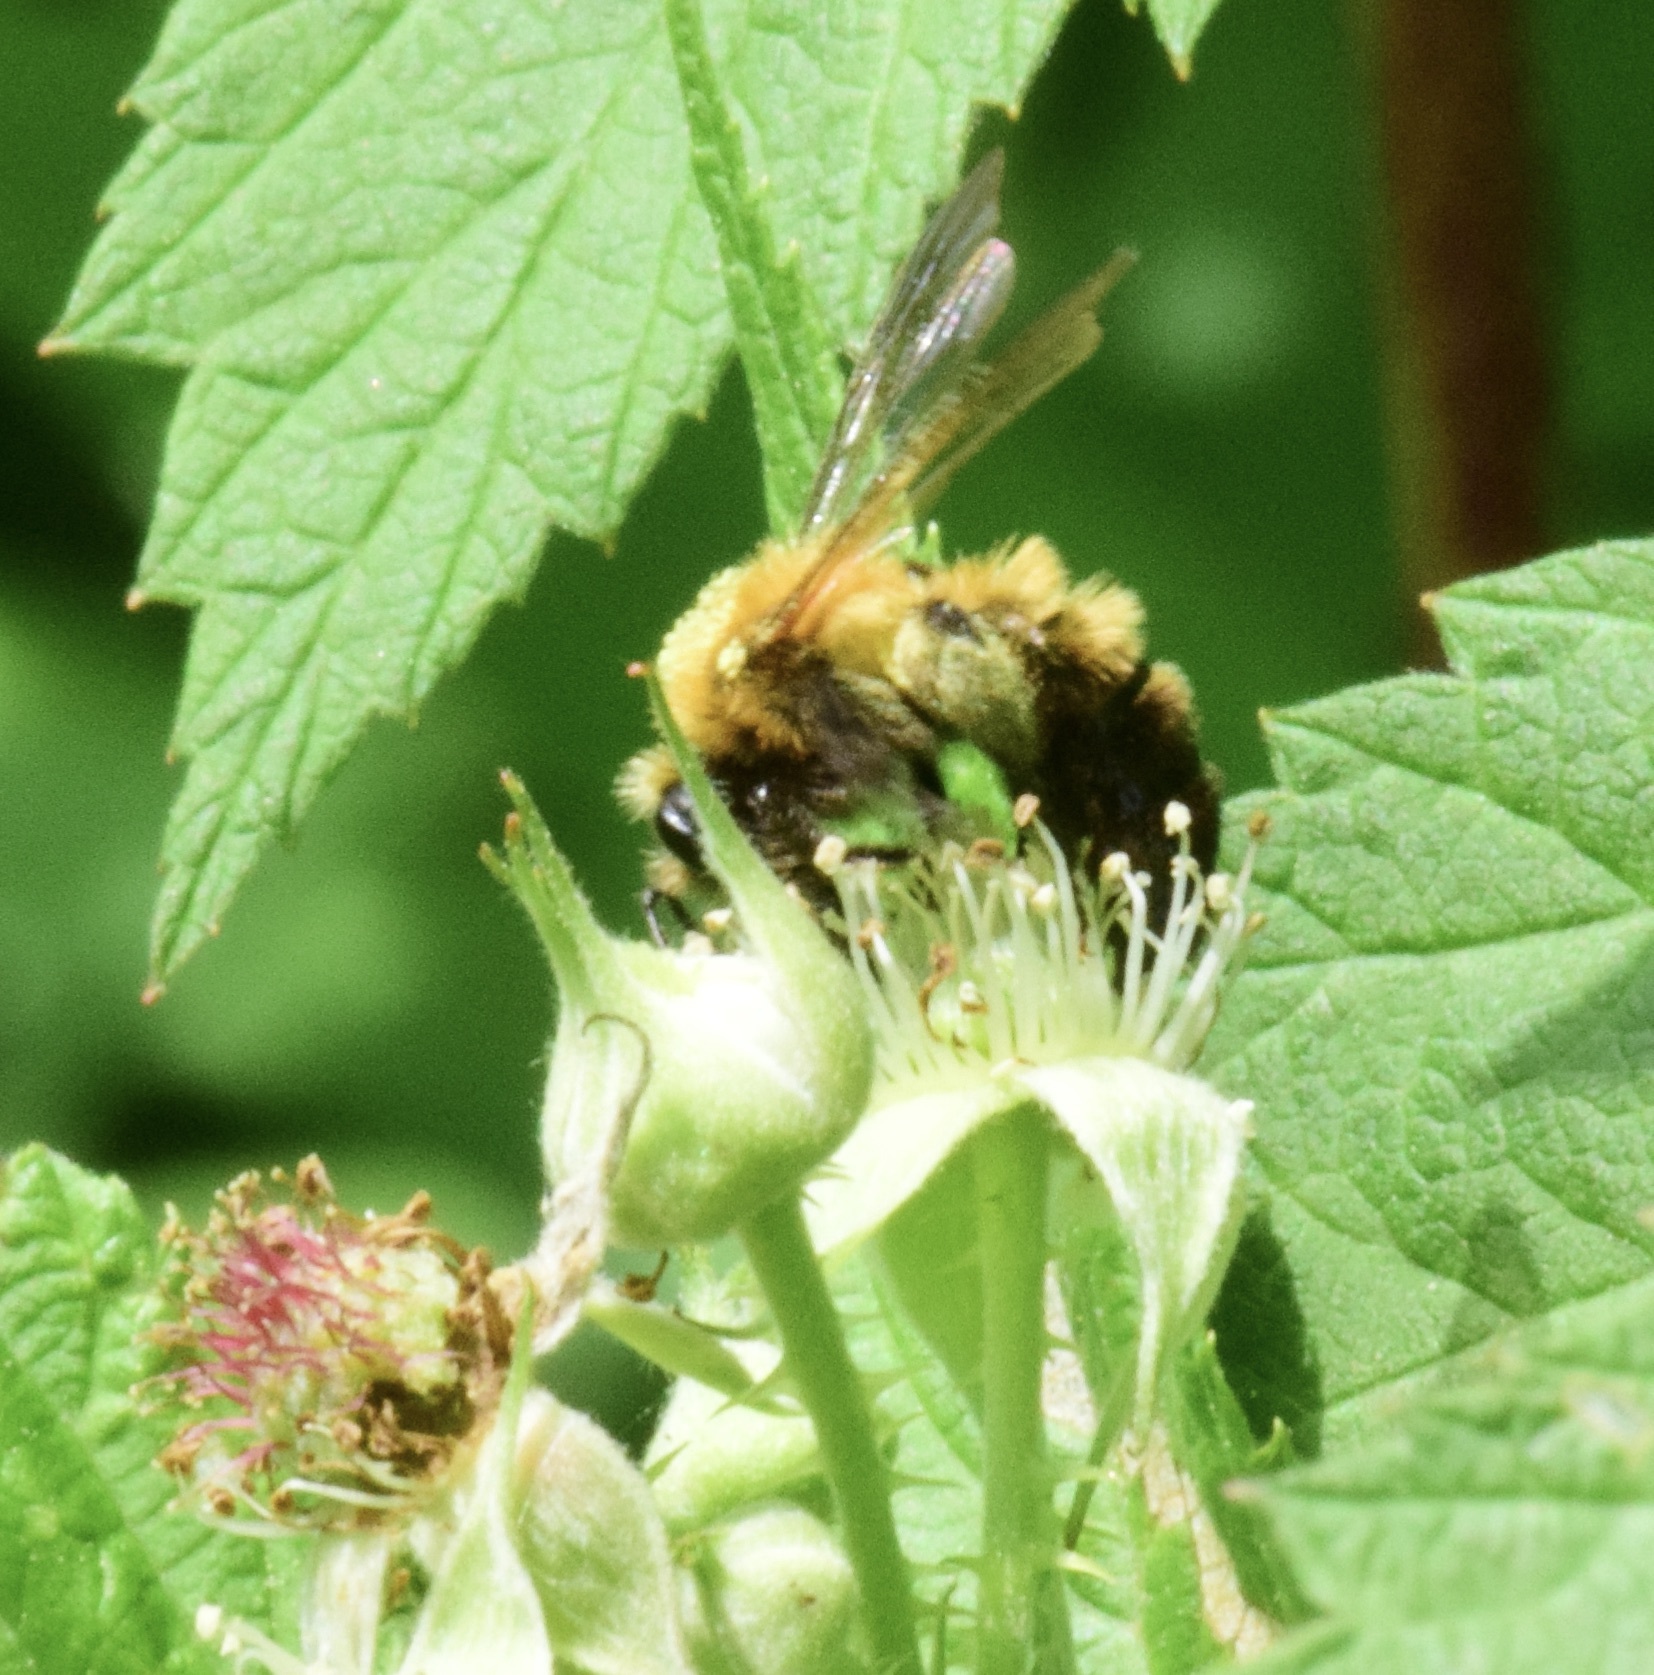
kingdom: Animalia
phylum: Arthropoda
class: Insecta
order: Hymenoptera
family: Andrenidae
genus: Andrena
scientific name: Andrena milwaukeensis
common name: Milwaukee mining bee
